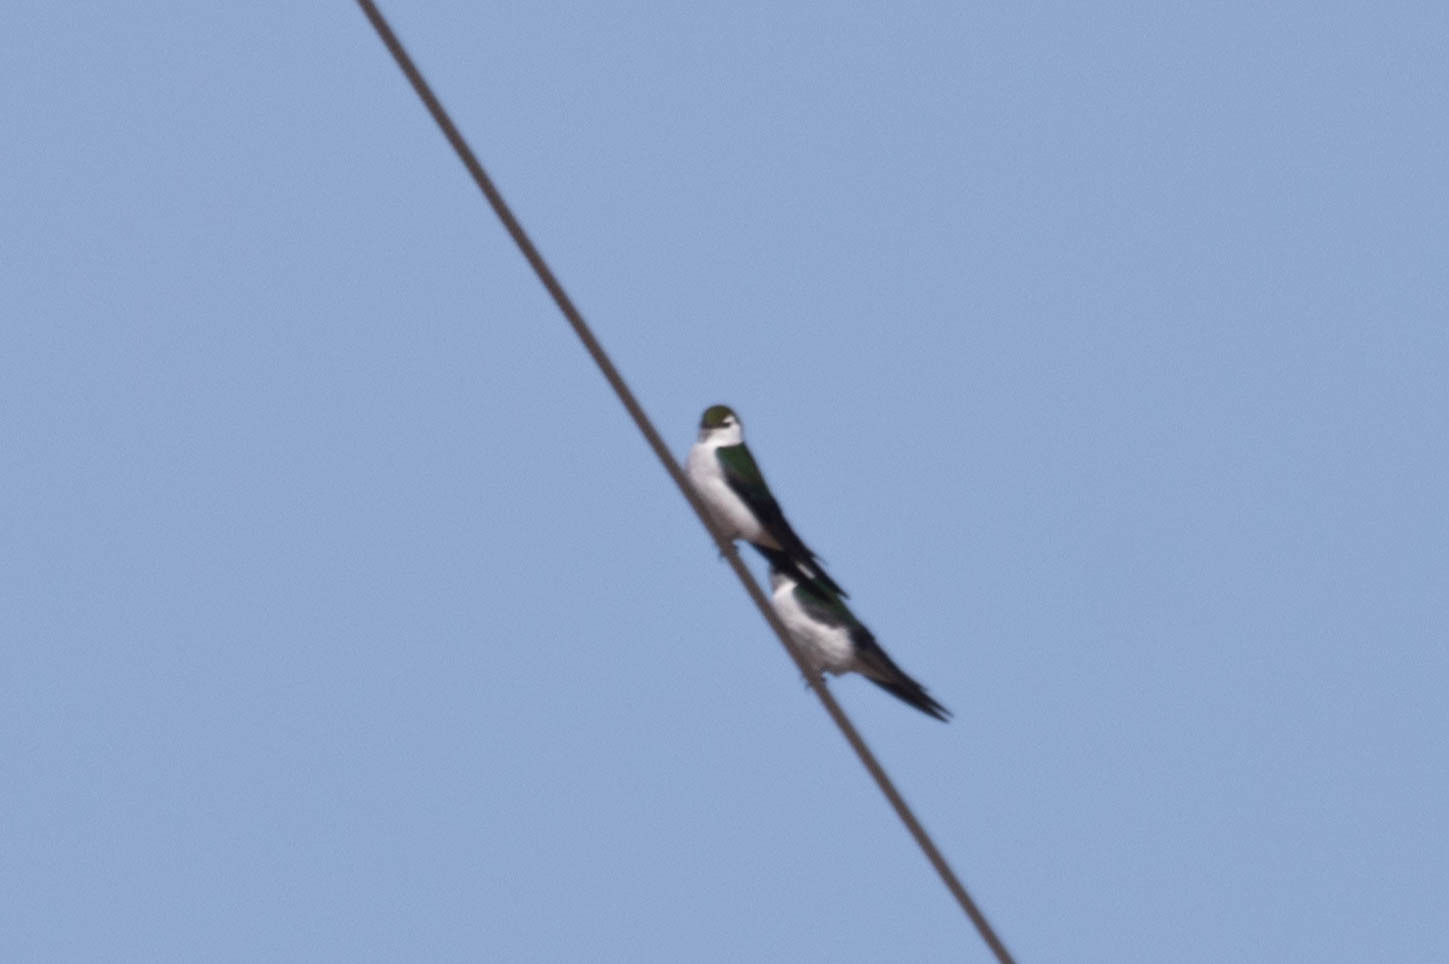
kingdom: Animalia
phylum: Chordata
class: Aves
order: Passeriformes
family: Hirundinidae
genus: Tachycineta
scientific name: Tachycineta thalassina
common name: Violet-green swallow
